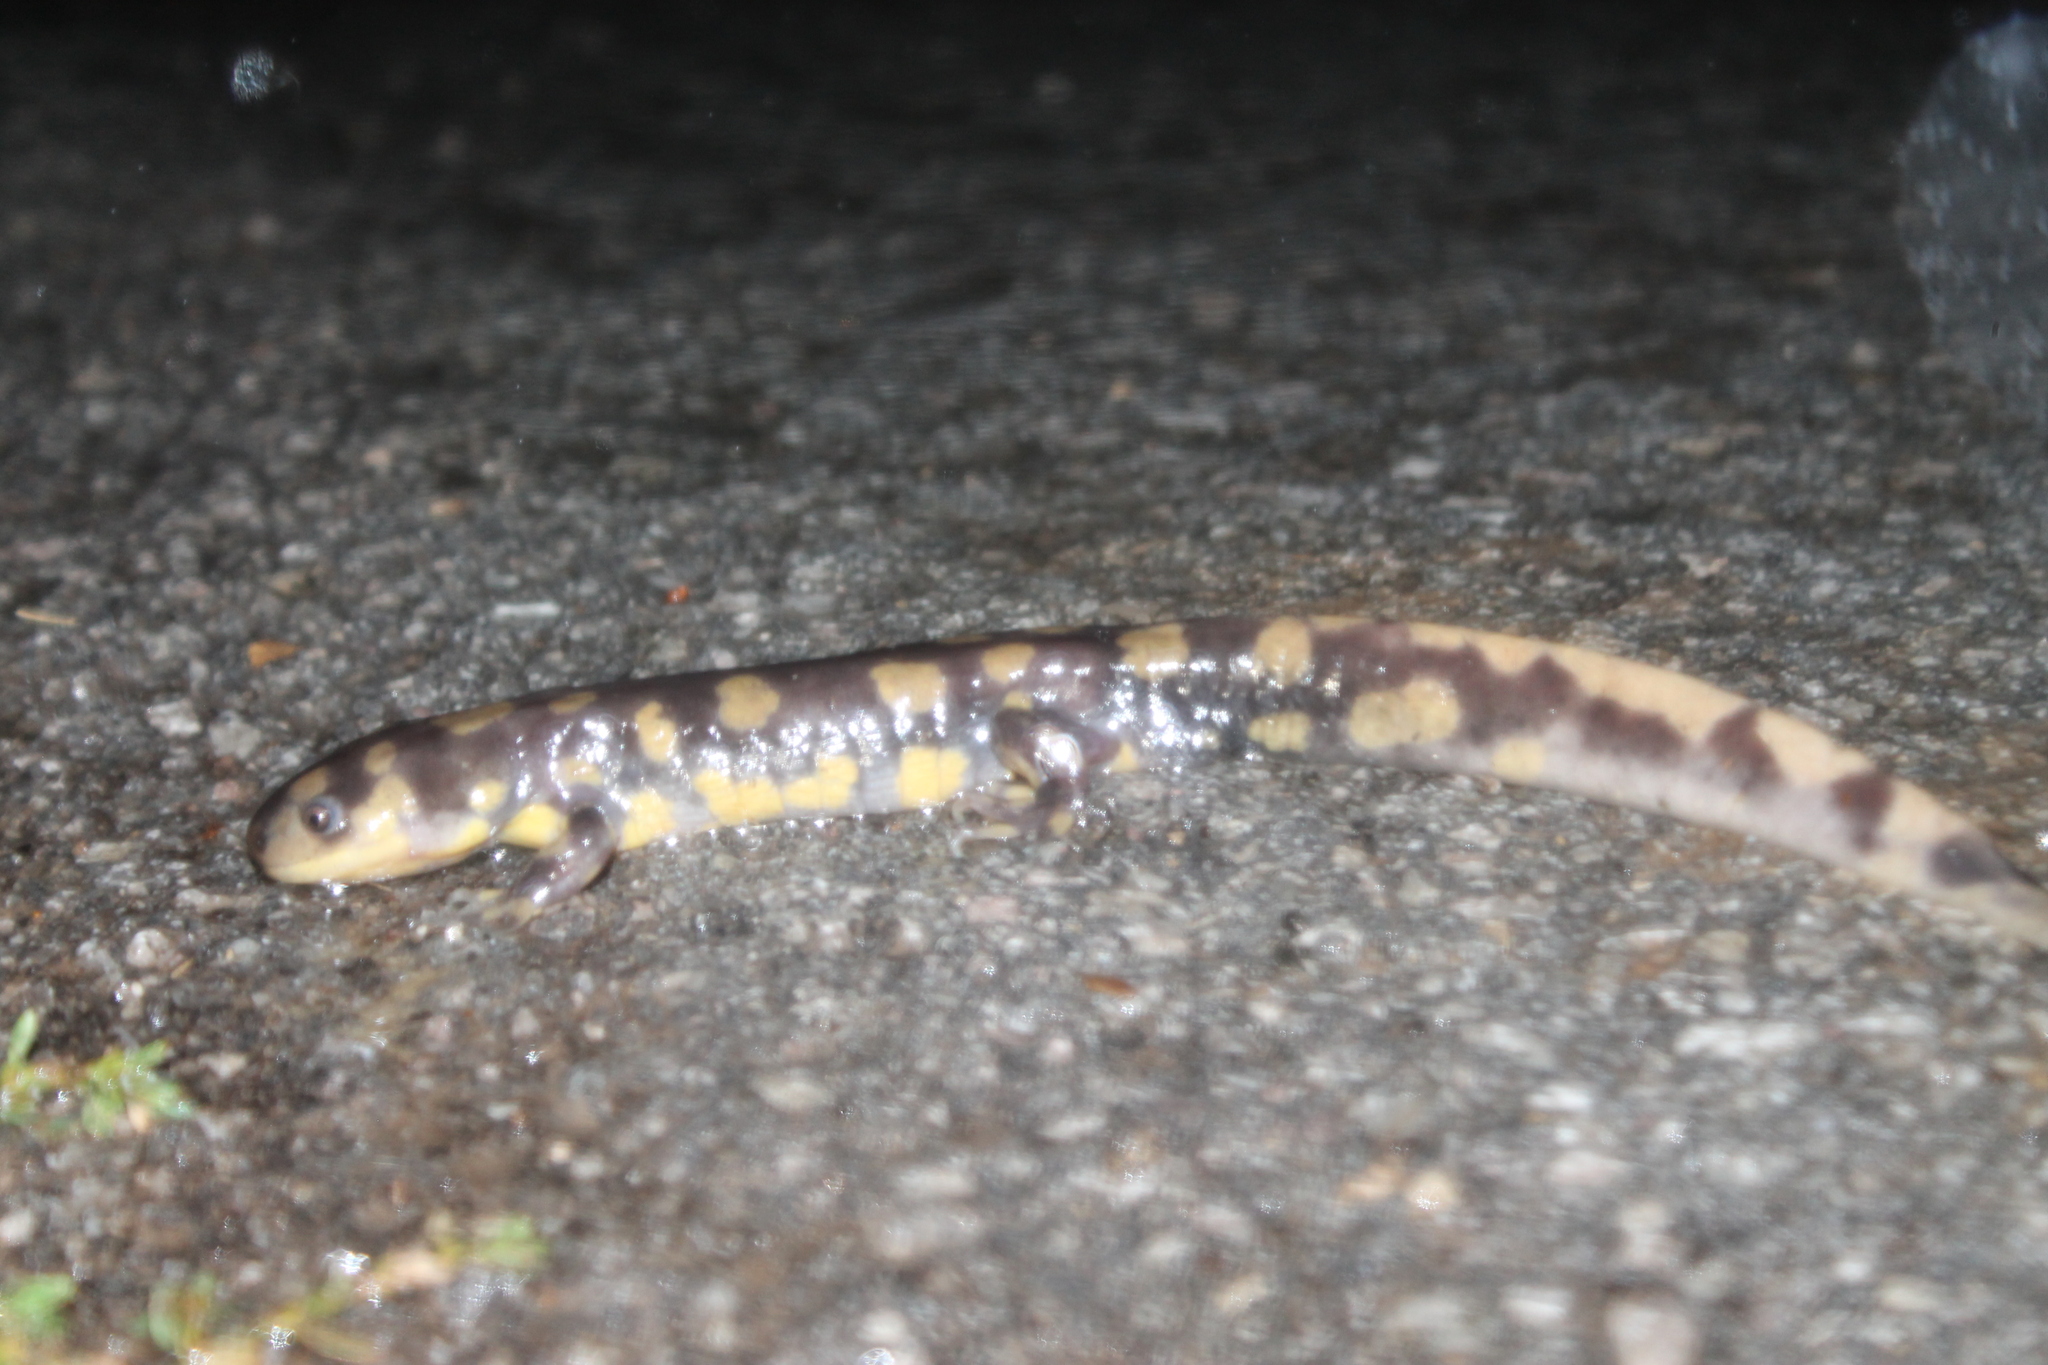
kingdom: Animalia
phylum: Chordata
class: Amphibia
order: Caudata
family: Ambystomatidae
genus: Ambystoma
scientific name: Ambystoma tigrinum
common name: Tiger salamander
